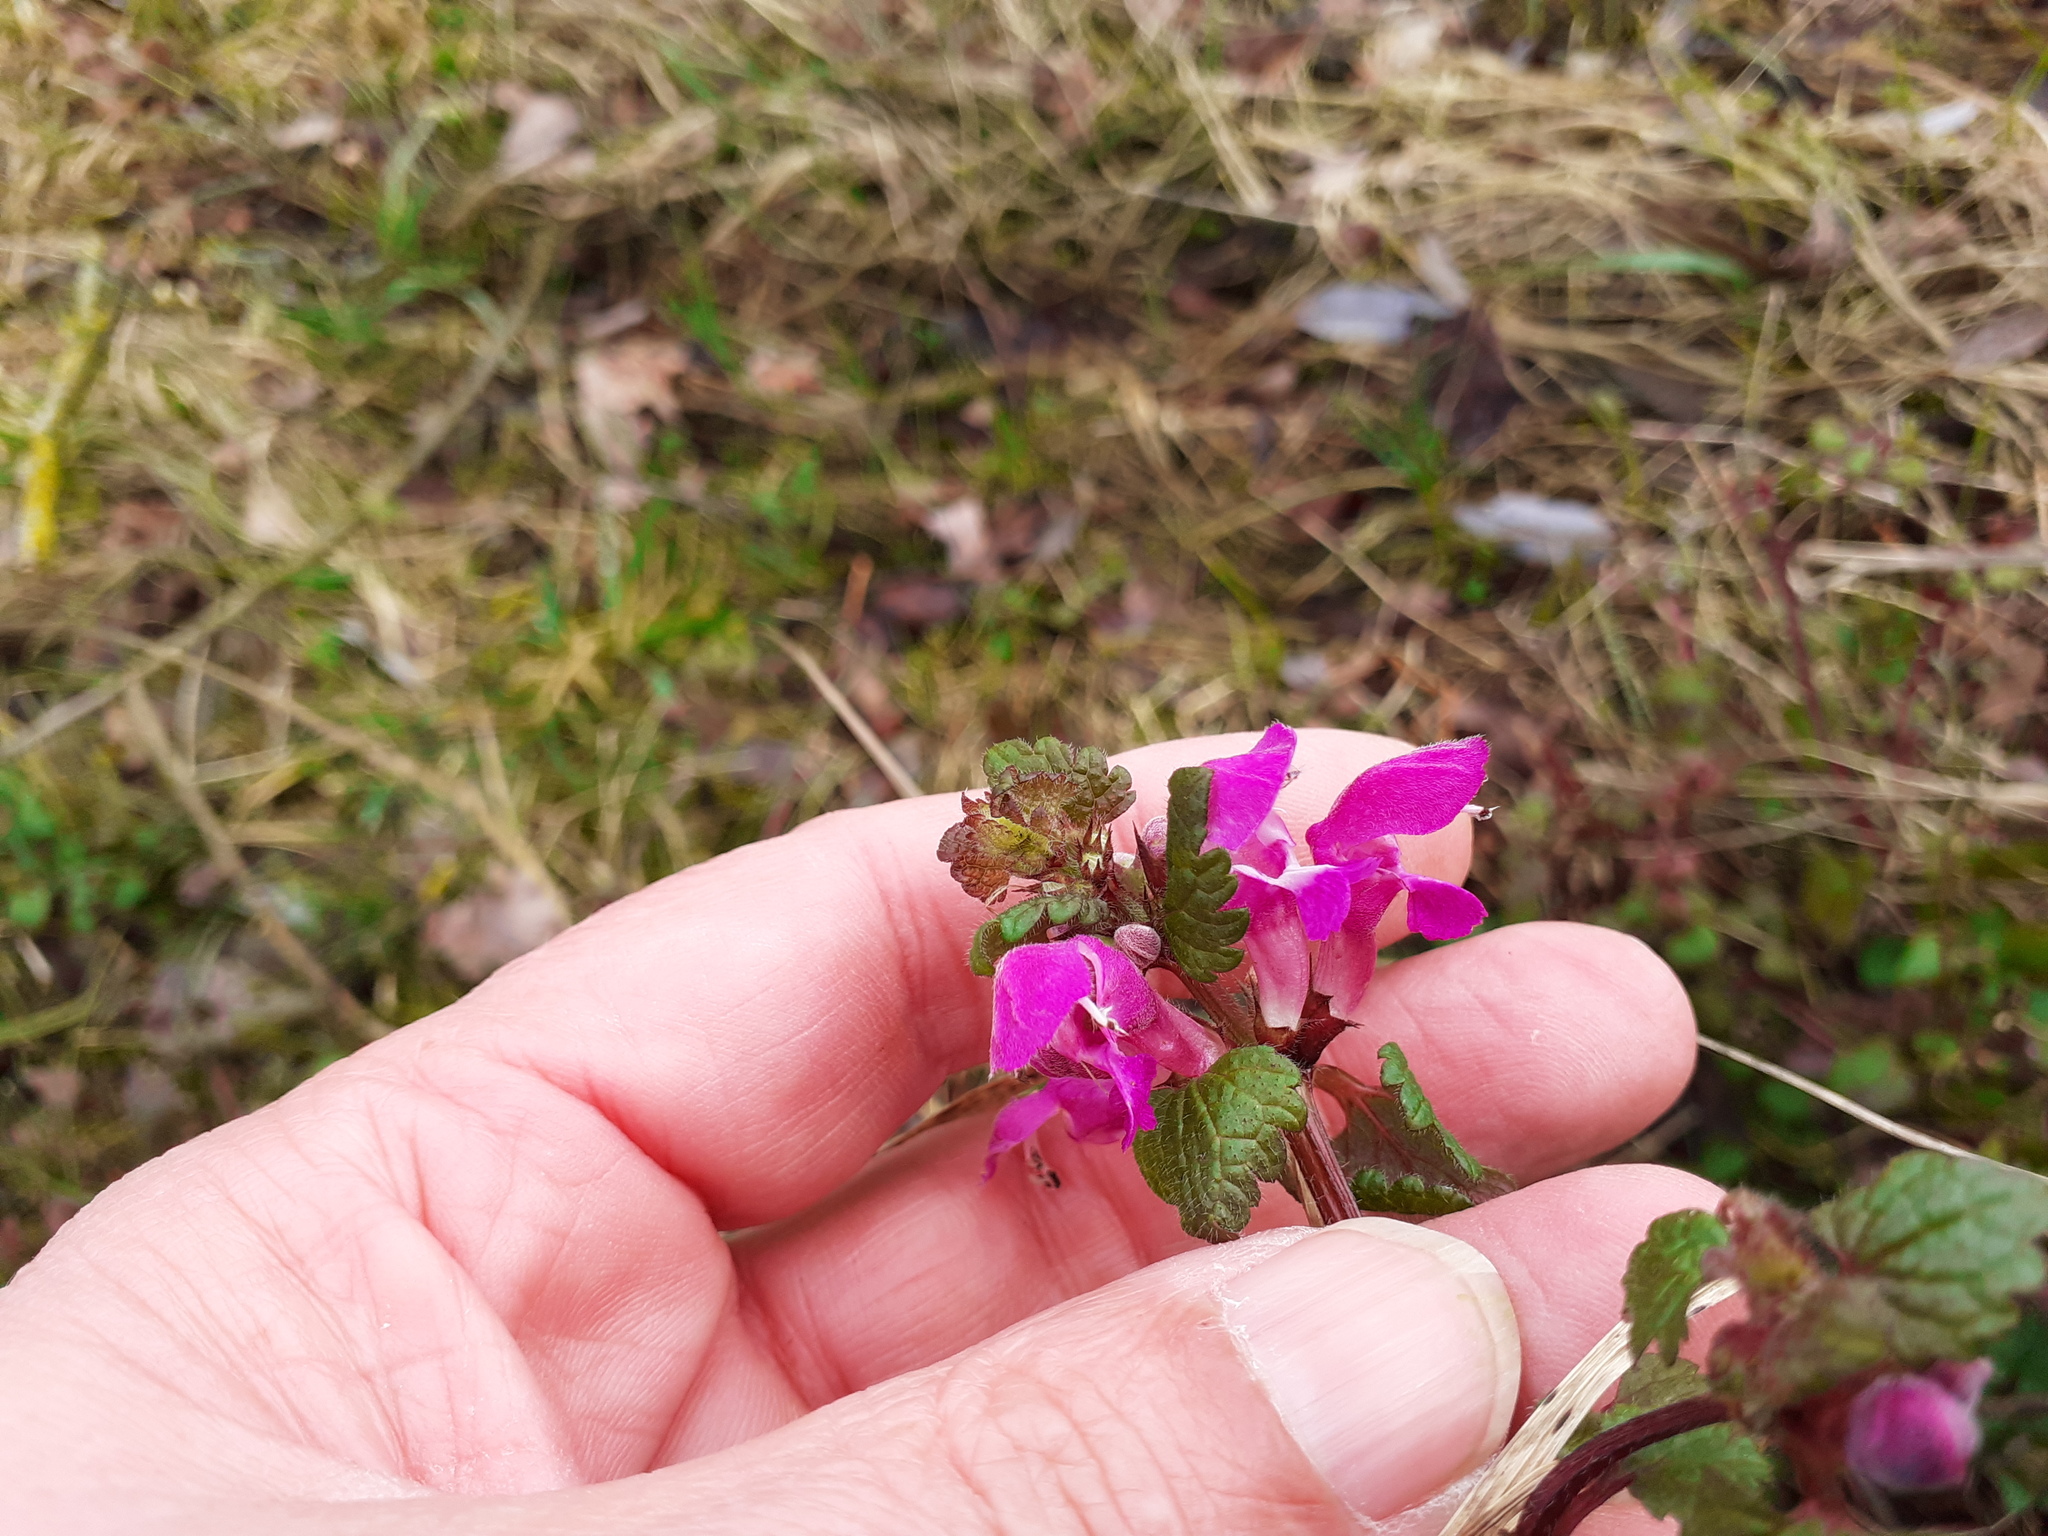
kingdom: Plantae
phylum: Tracheophyta
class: Magnoliopsida
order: Lamiales
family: Lamiaceae
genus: Lamium
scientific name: Lamium maculatum
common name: Spotted dead-nettle
